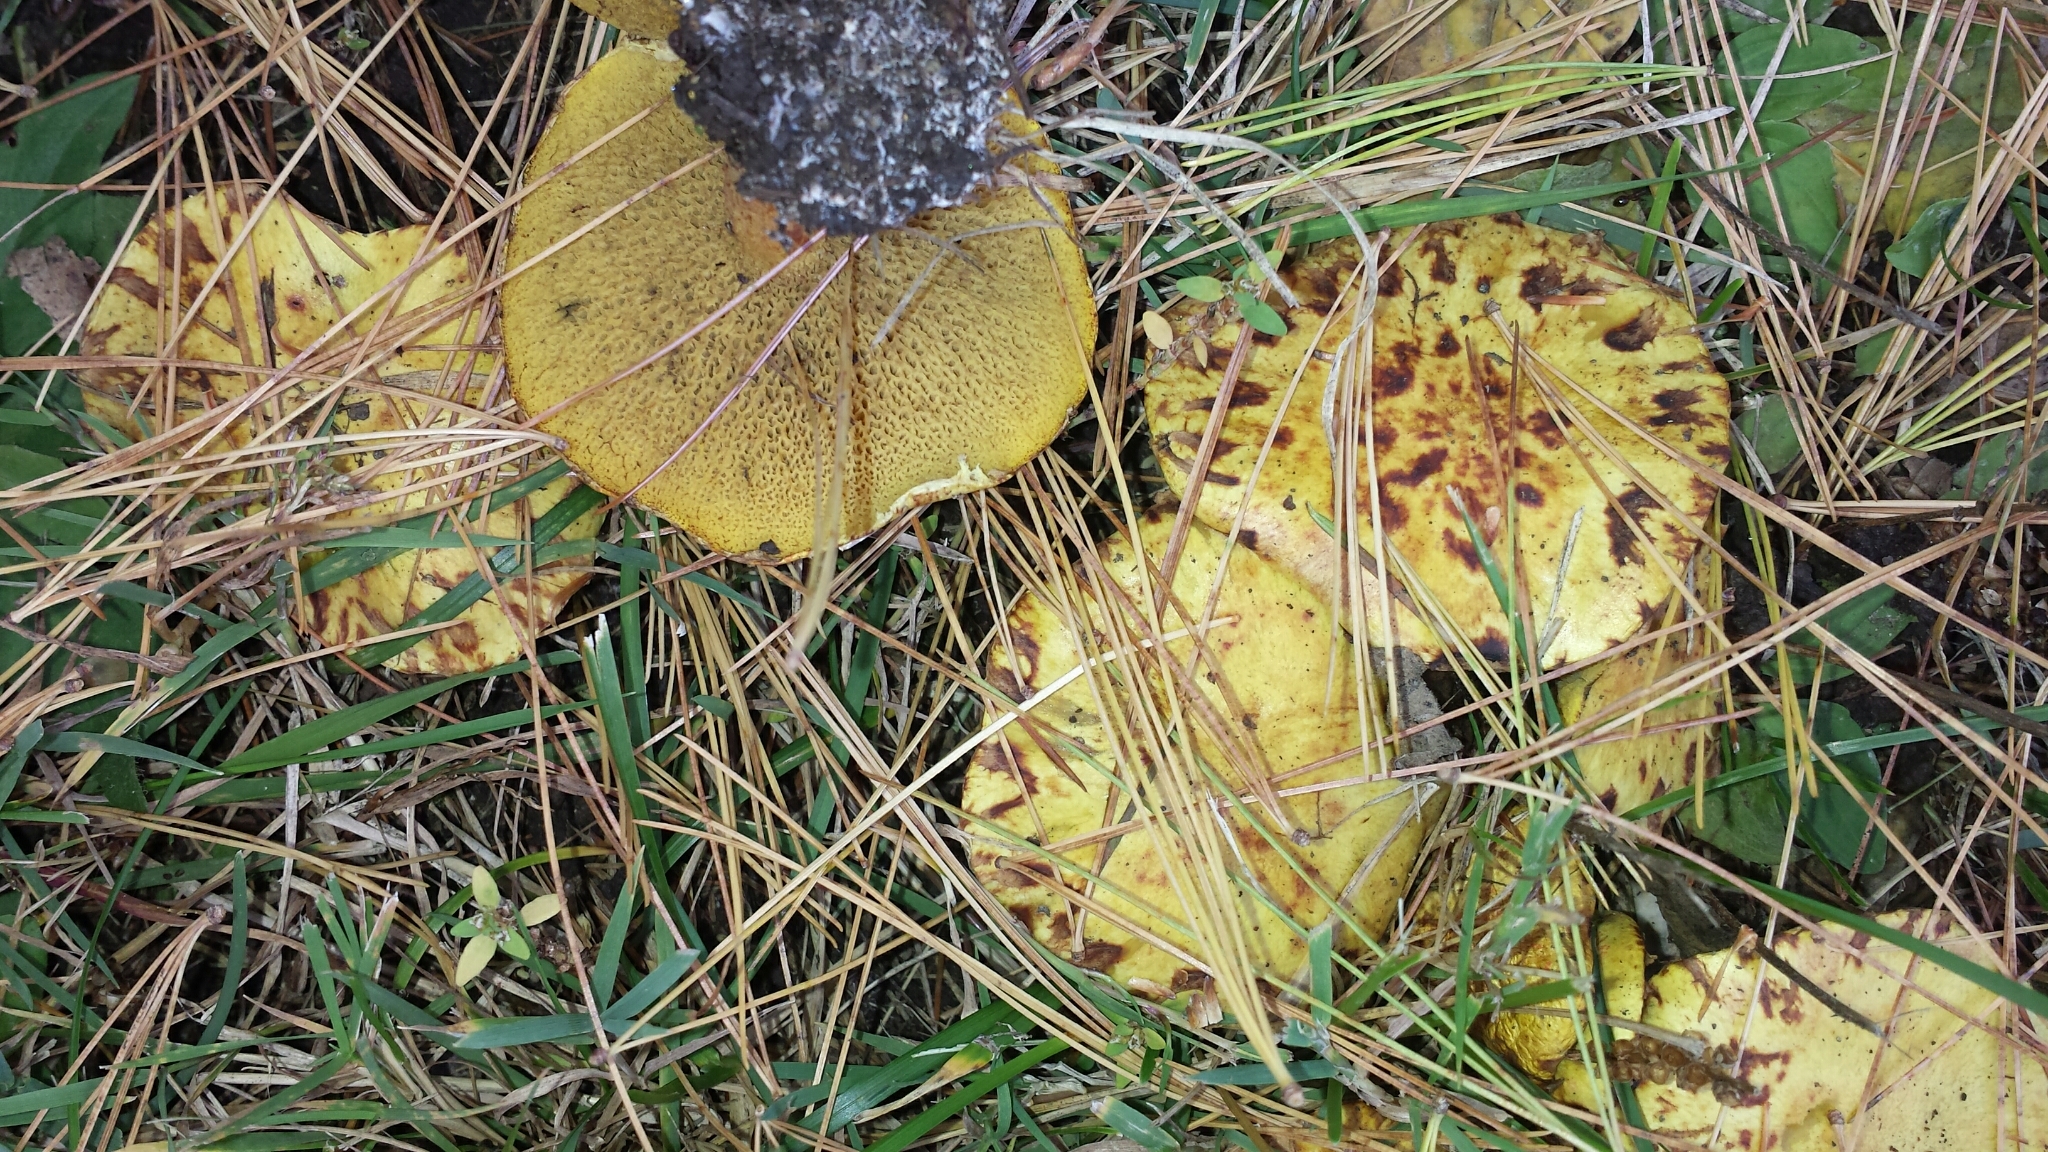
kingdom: Fungi
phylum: Basidiomycota
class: Agaricomycetes
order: Boletales
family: Suillaceae
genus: Suillus
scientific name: Suillus americanus
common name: Chicken fat mushroom
